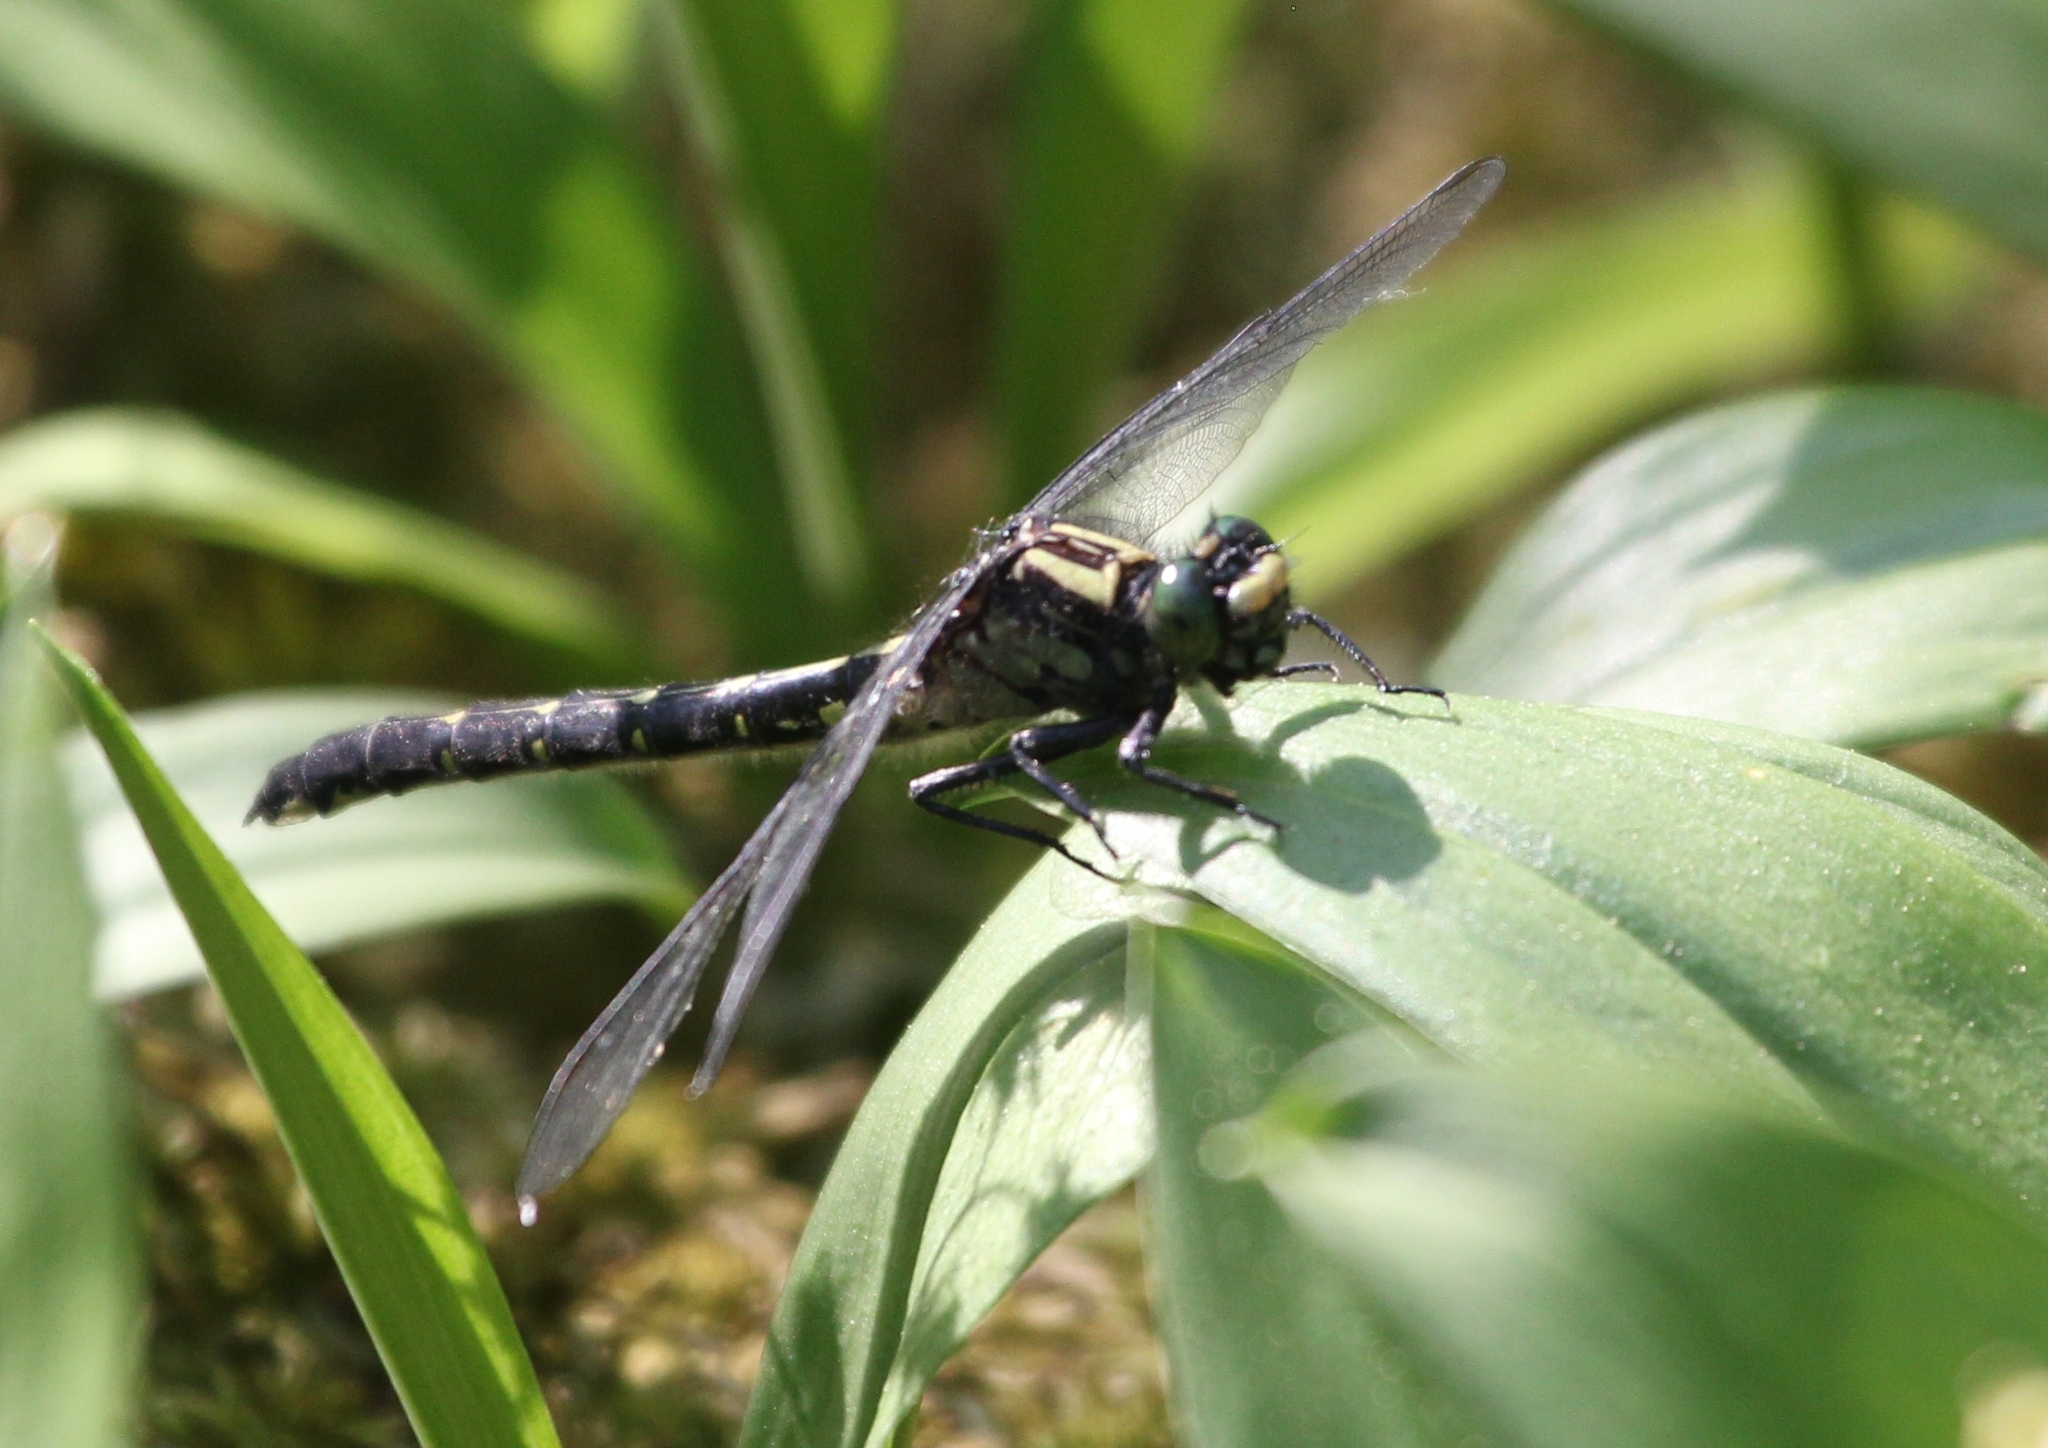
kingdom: Animalia
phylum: Arthropoda
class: Insecta
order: Odonata
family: Gomphidae
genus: Hylogomphus
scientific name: Hylogomphus adelphus
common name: Mustached clubtail
